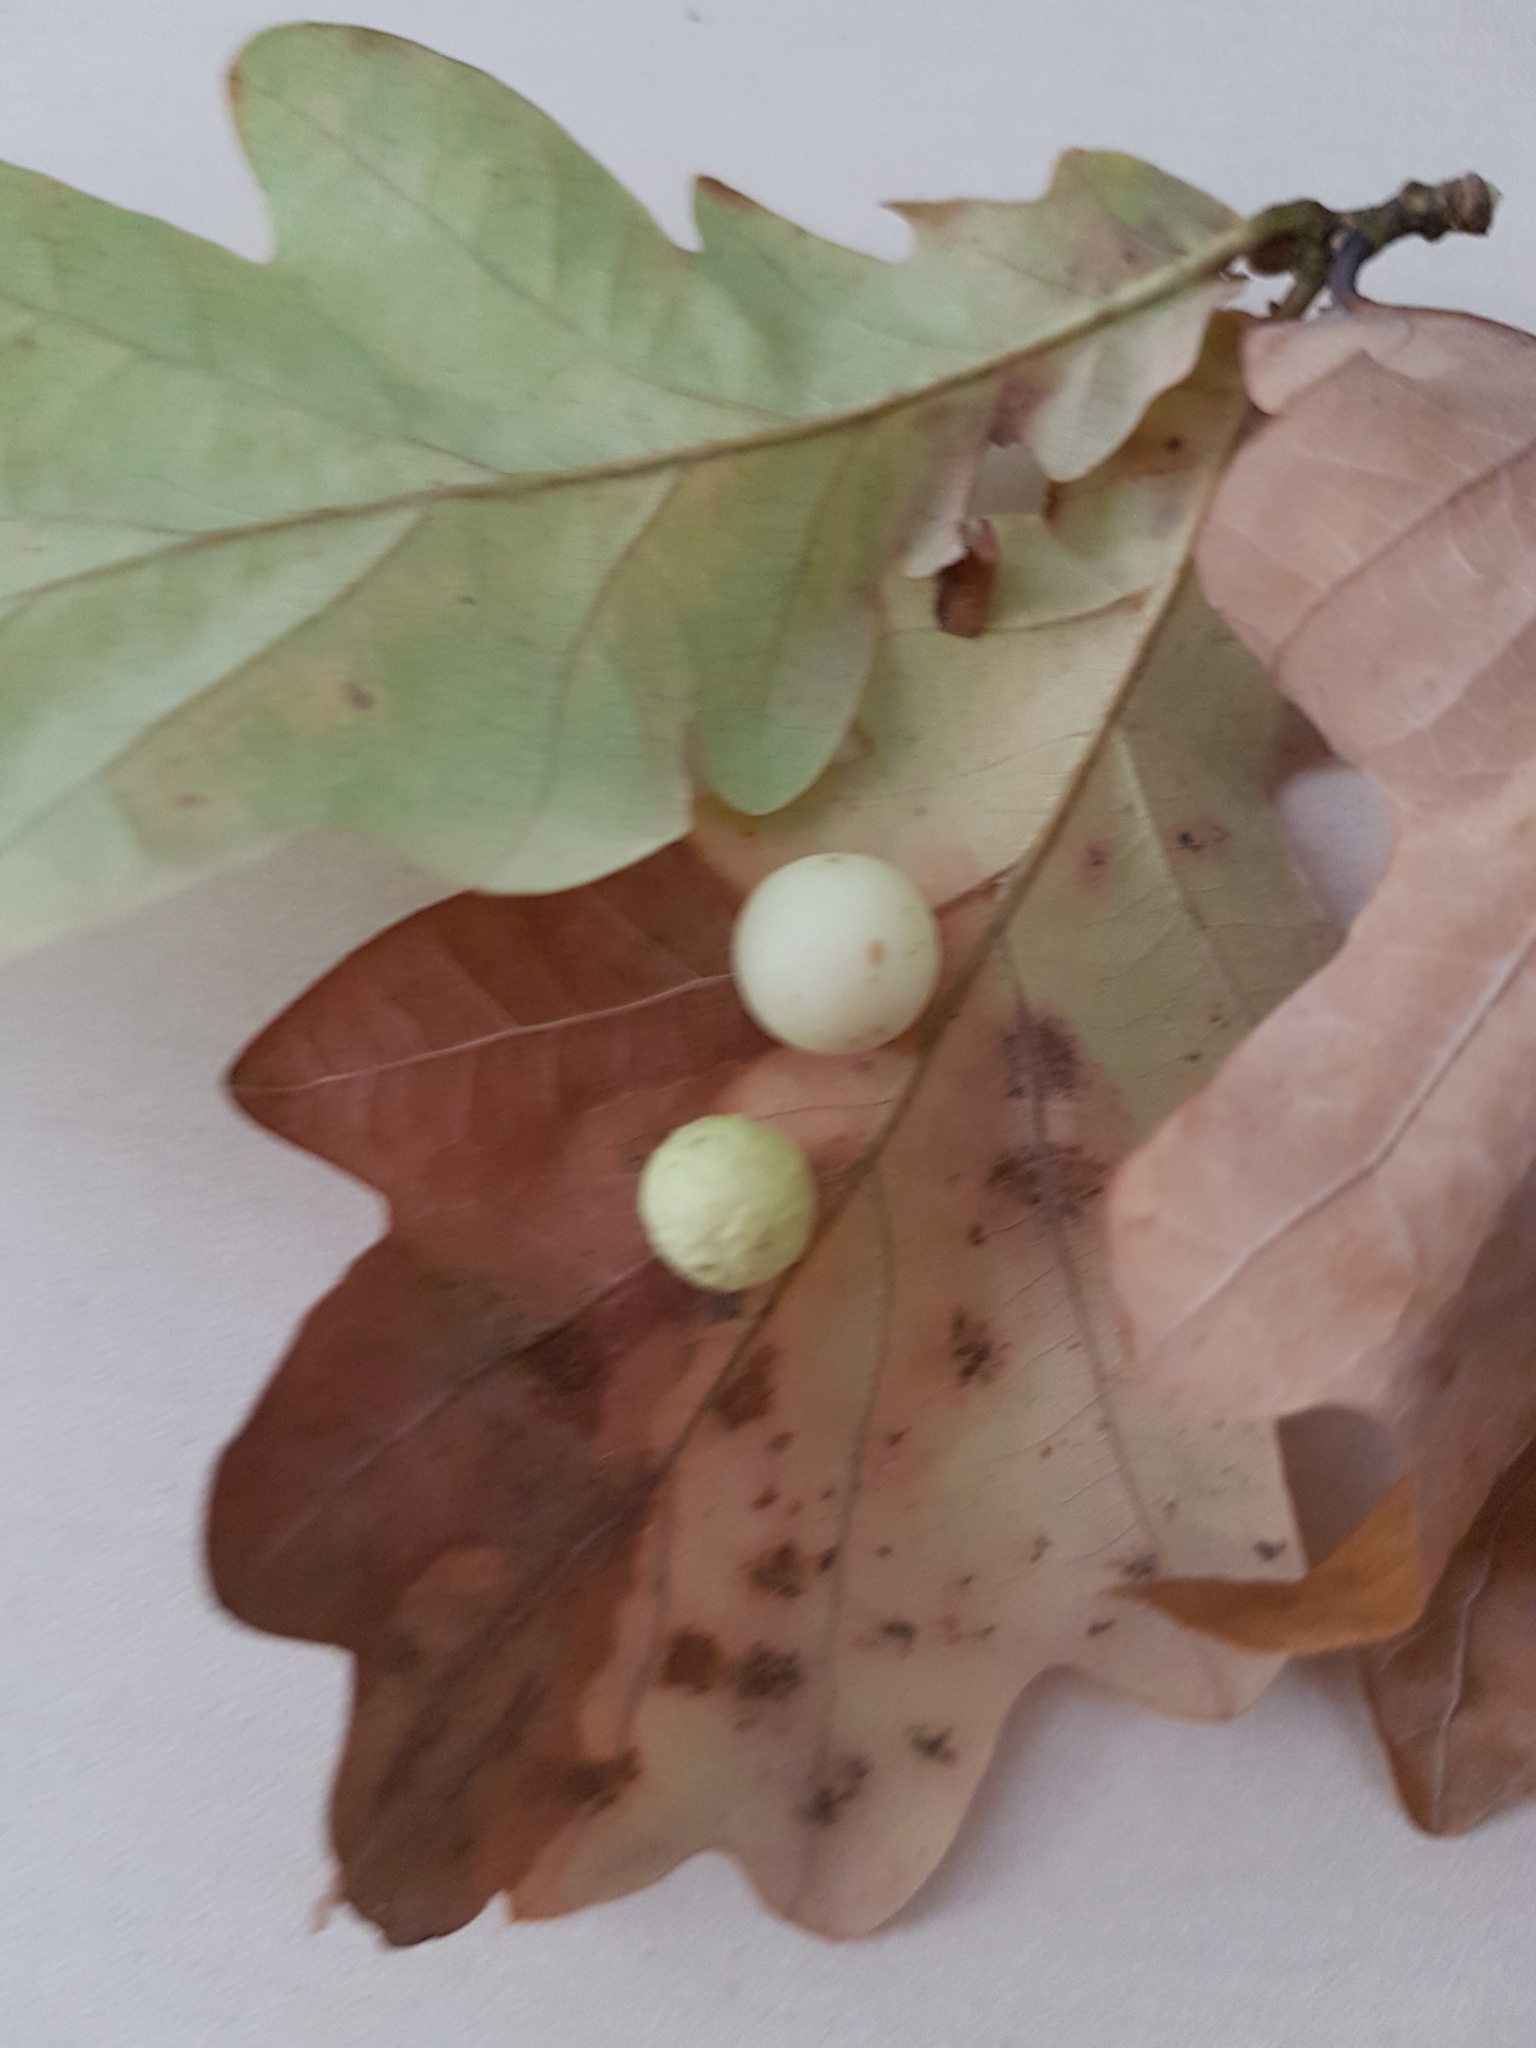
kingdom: Animalia
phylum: Arthropoda
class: Insecta
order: Hymenoptera
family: Cynipidae
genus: Cynips
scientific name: Cynips quercusfolii
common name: Cherry gall
